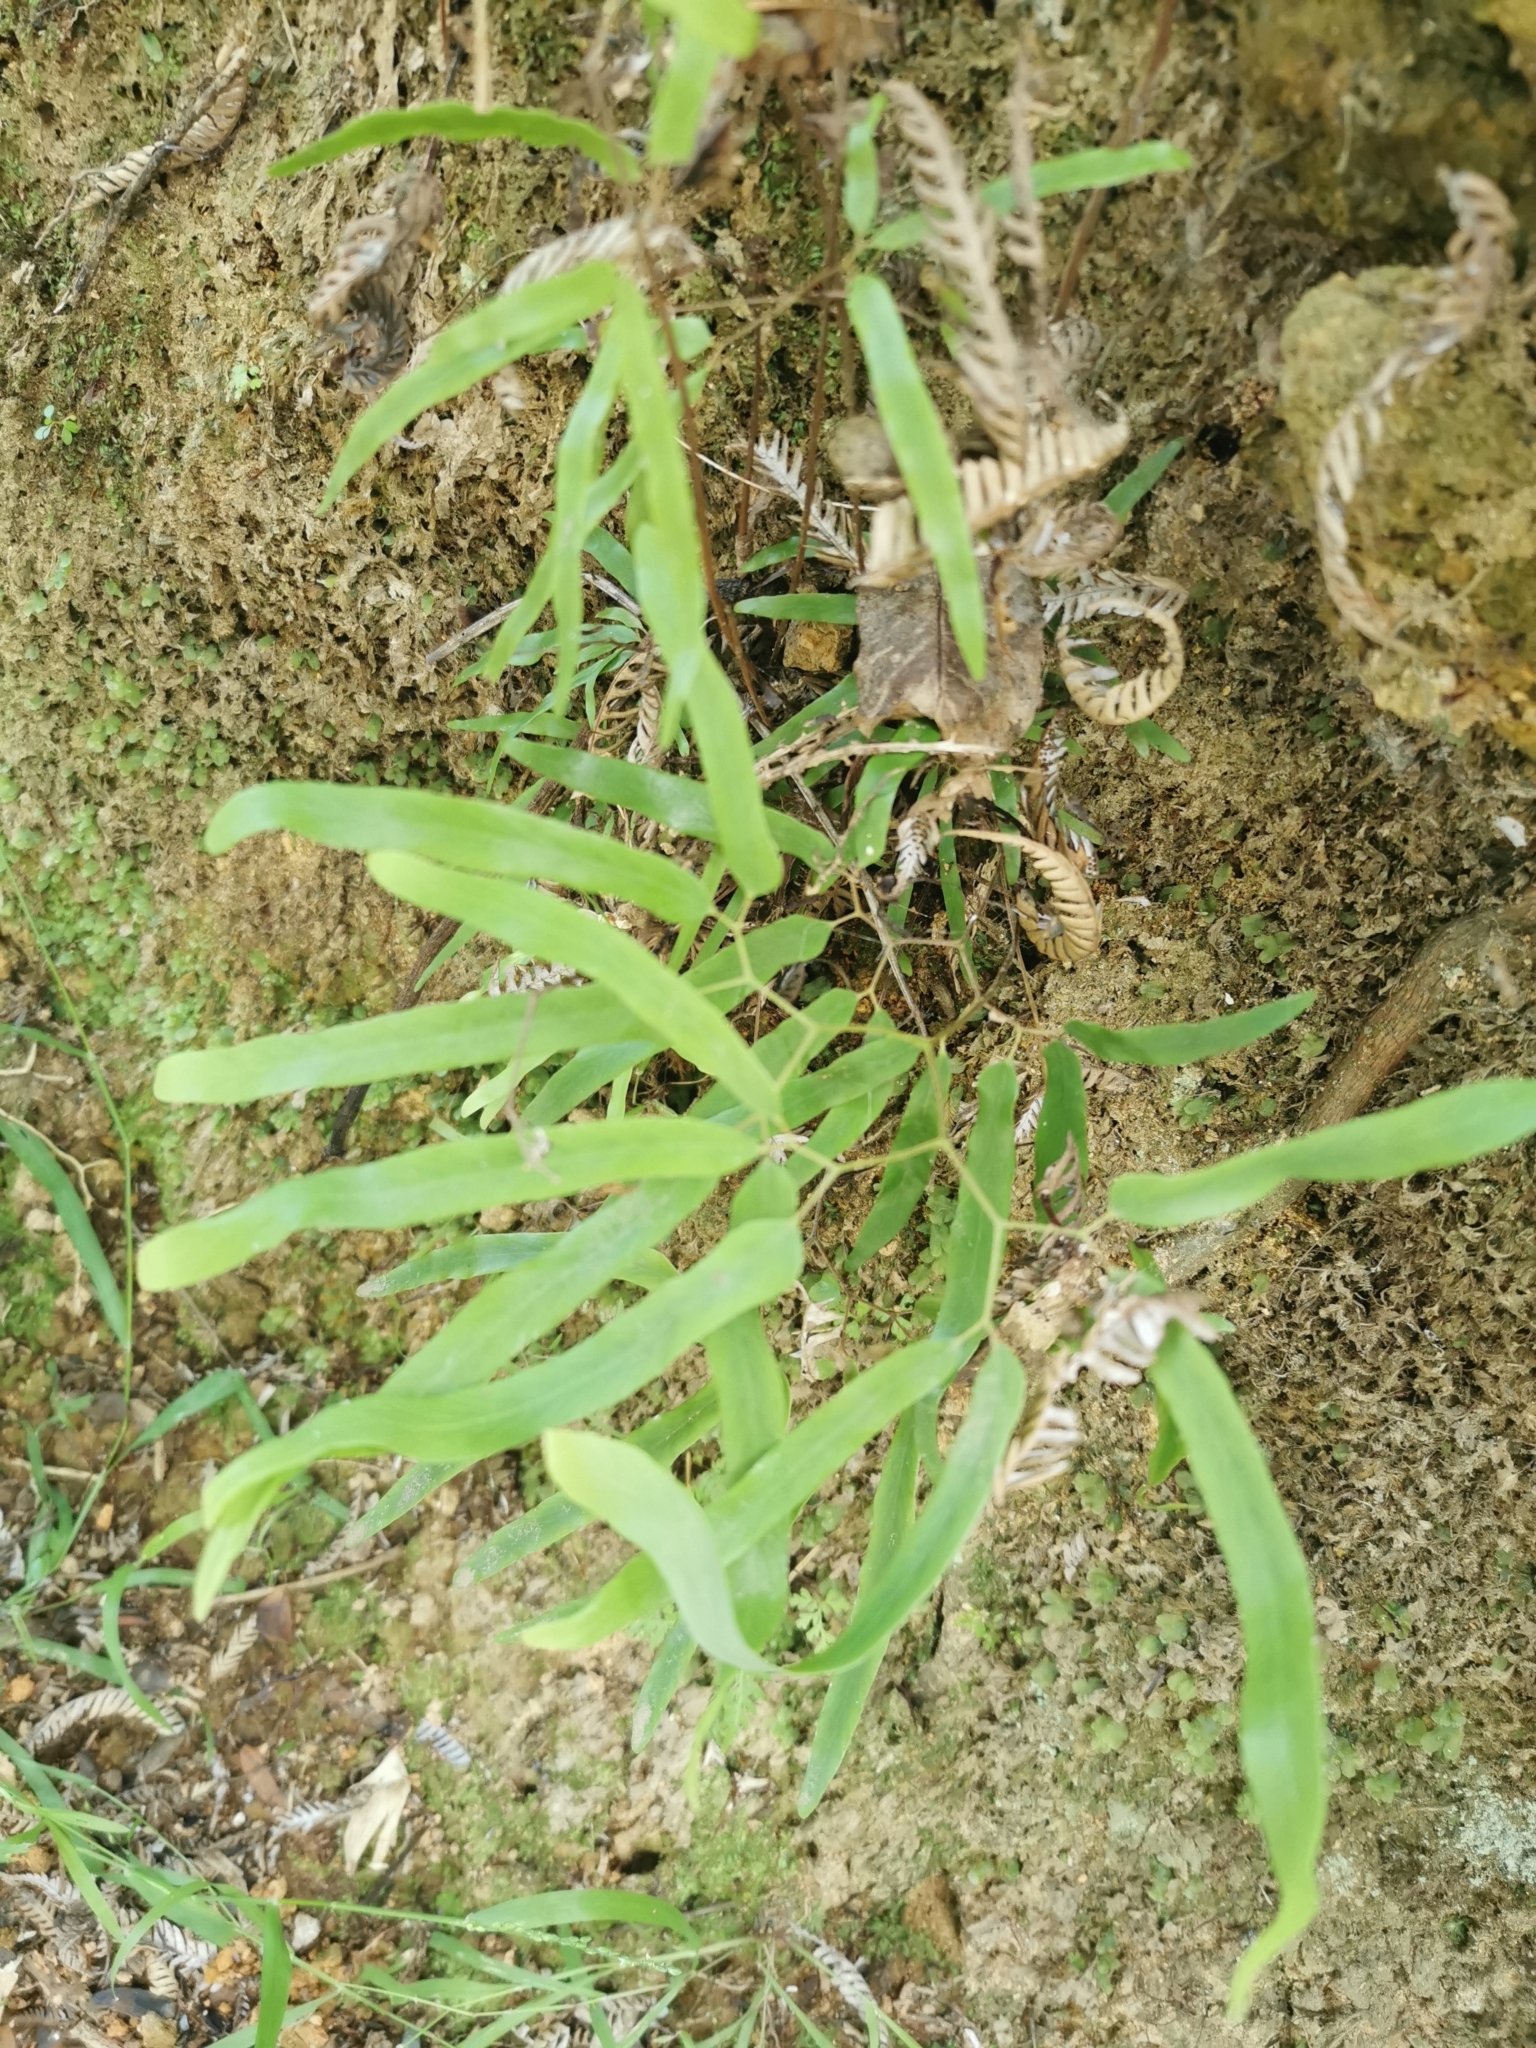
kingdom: Plantae
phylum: Tracheophyta
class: Polypodiopsida
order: Schizaeales
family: Lygodiaceae
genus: Lygodium
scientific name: Lygodium articulatum
